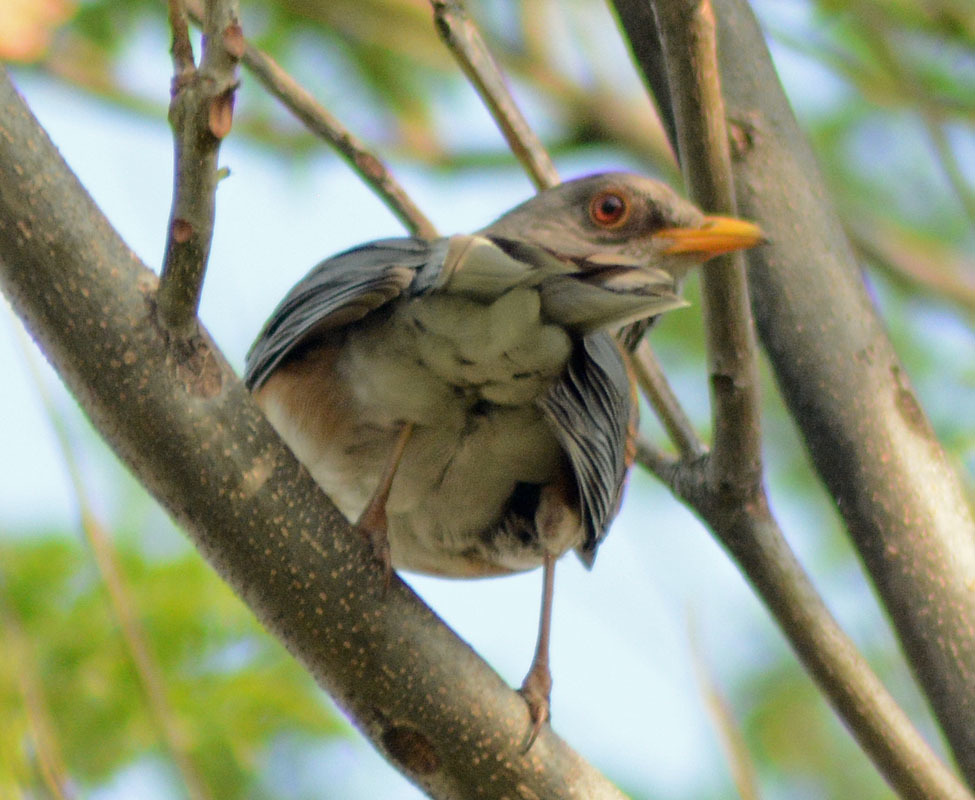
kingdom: Animalia
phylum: Chordata
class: Aves
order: Passeriformes
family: Turdidae
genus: Turdus
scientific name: Turdus rufopalliatus
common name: Rufous-backed robin
